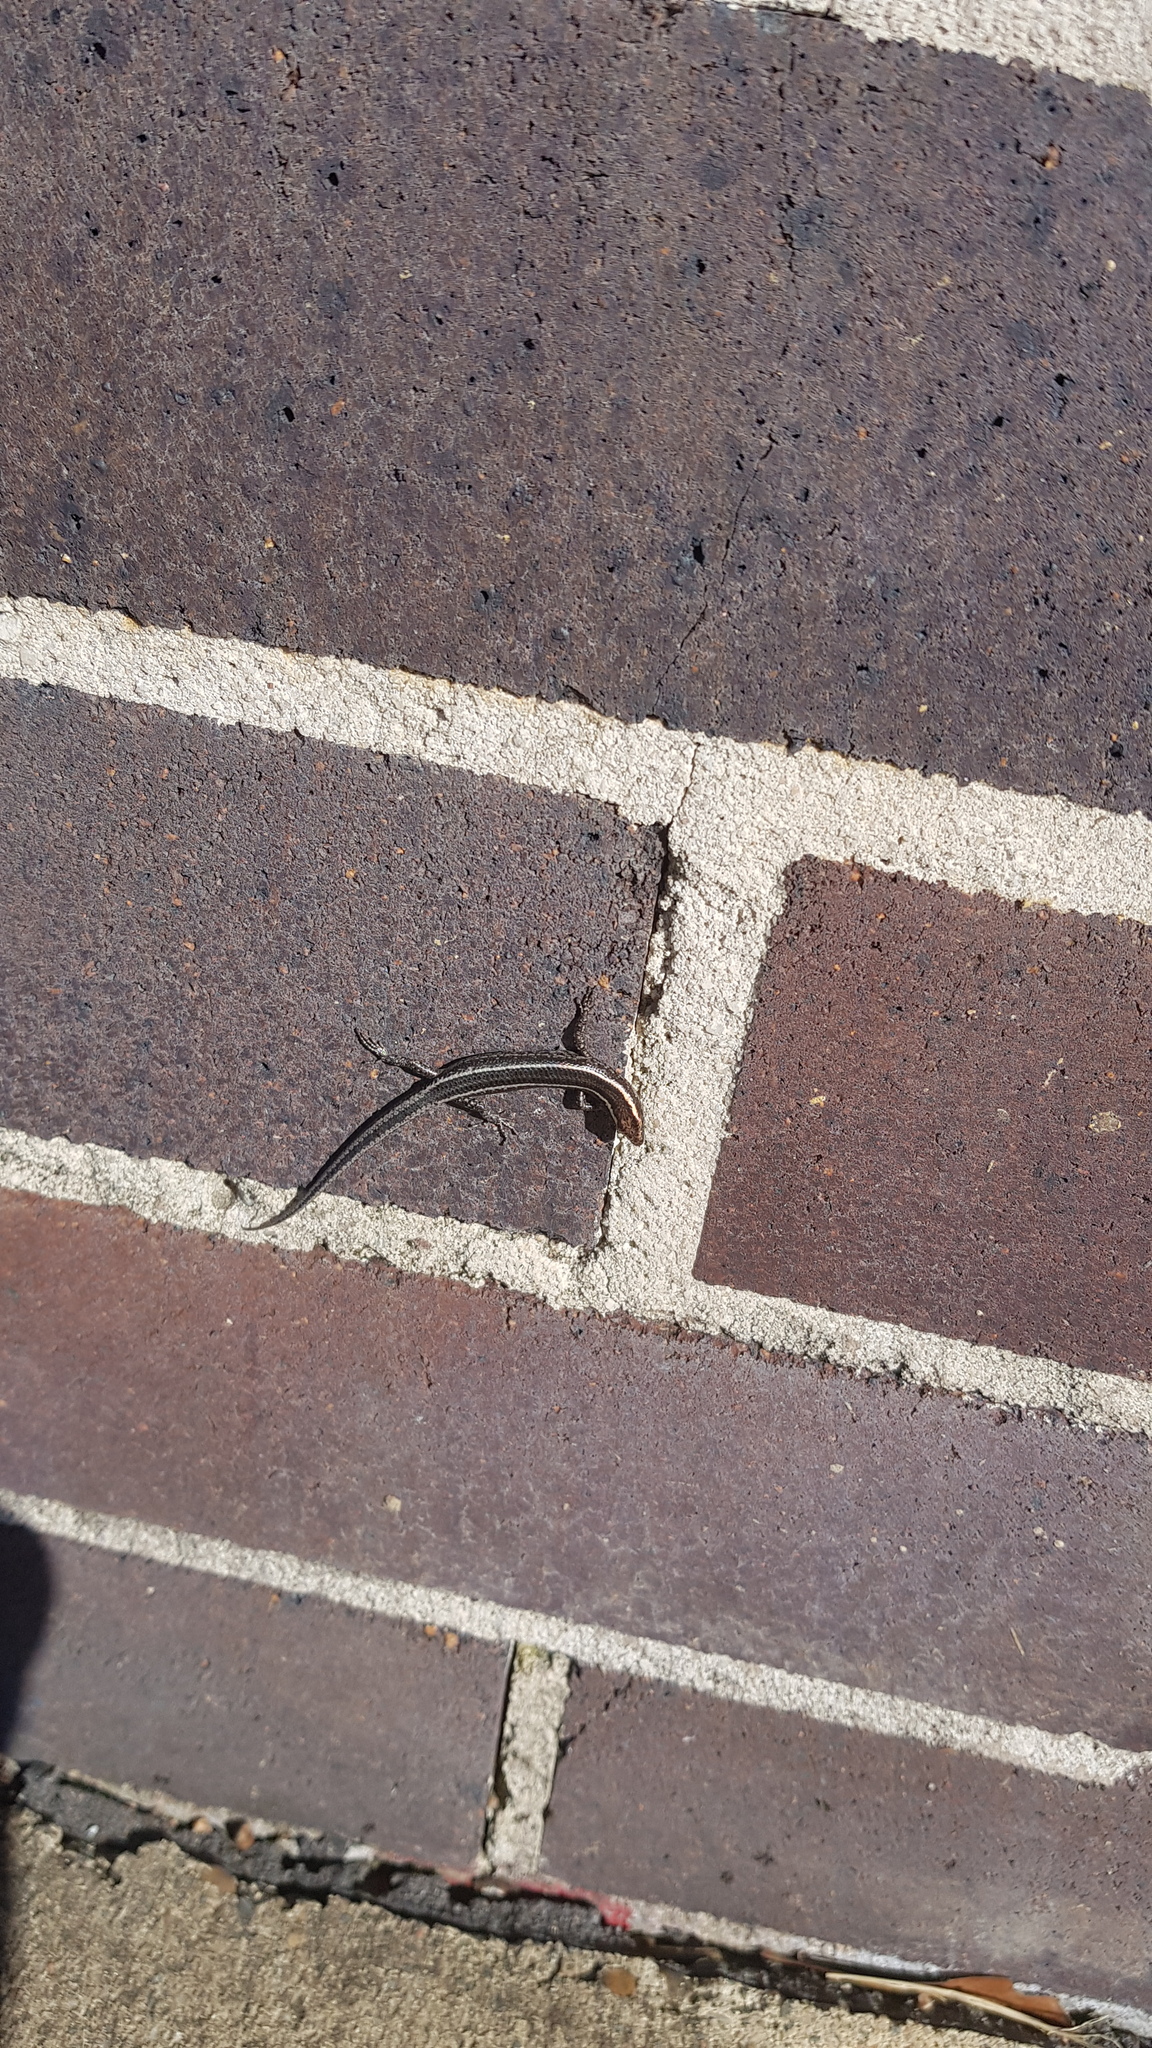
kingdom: Animalia
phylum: Chordata
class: Squamata
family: Scincidae
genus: Cryptoblepharus
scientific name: Cryptoblepharus pulcher
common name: Elegant snake-eyed skink
